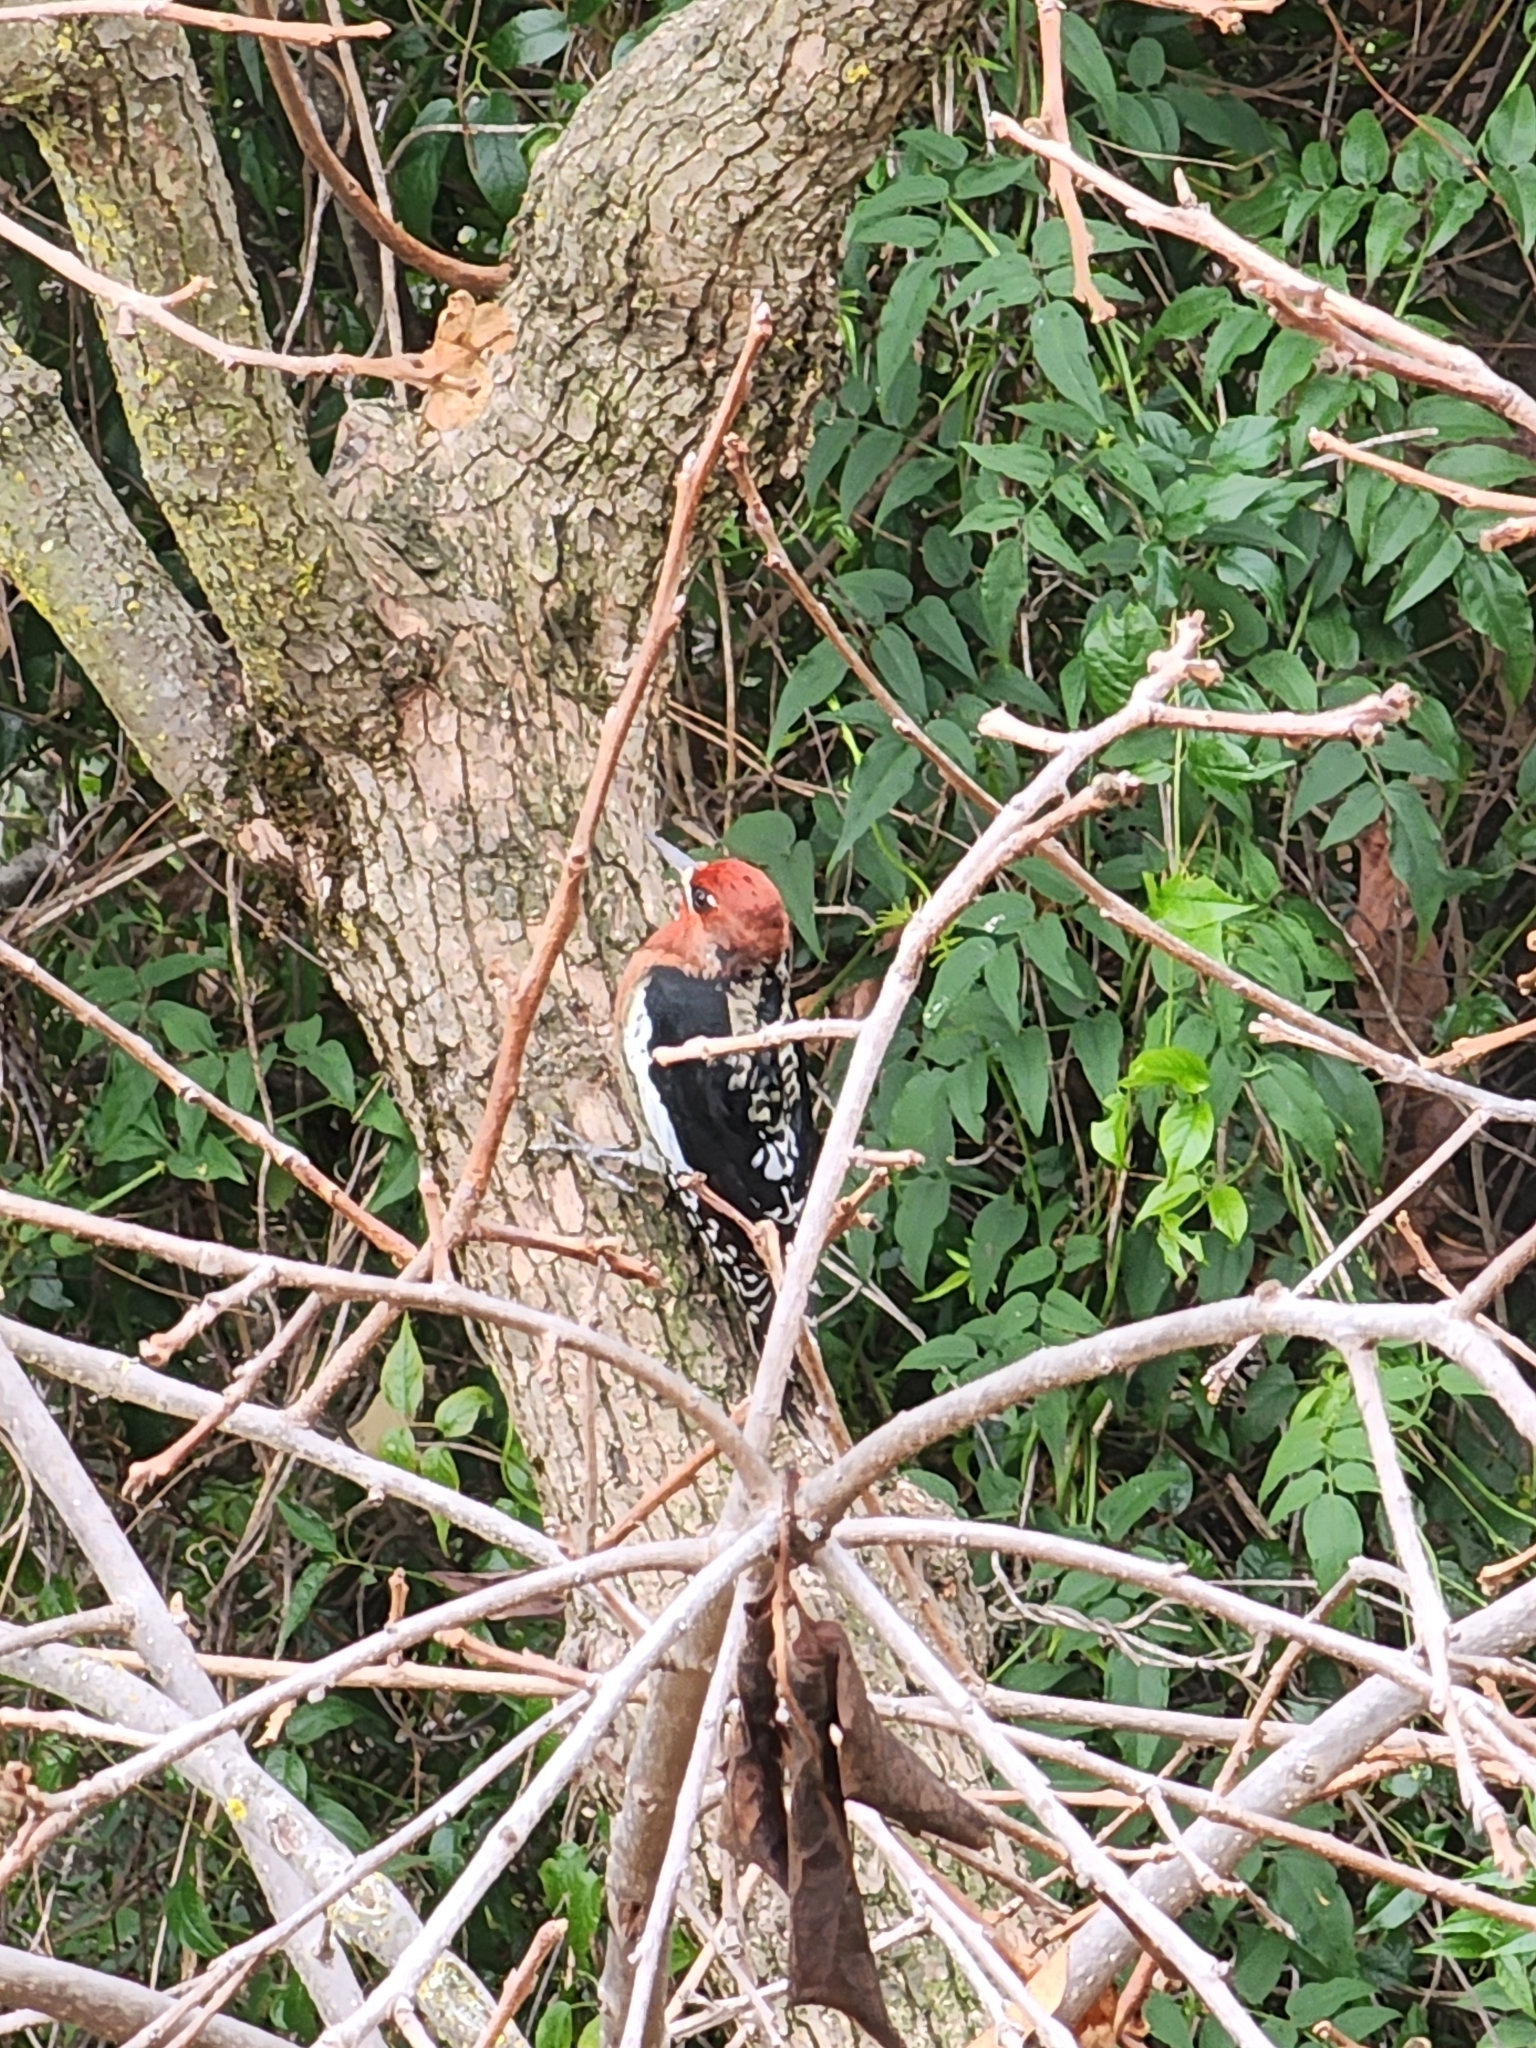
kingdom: Animalia
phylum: Chordata
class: Aves
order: Piciformes
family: Picidae
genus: Sphyrapicus
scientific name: Sphyrapicus ruber
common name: Red-breasted sapsucker
